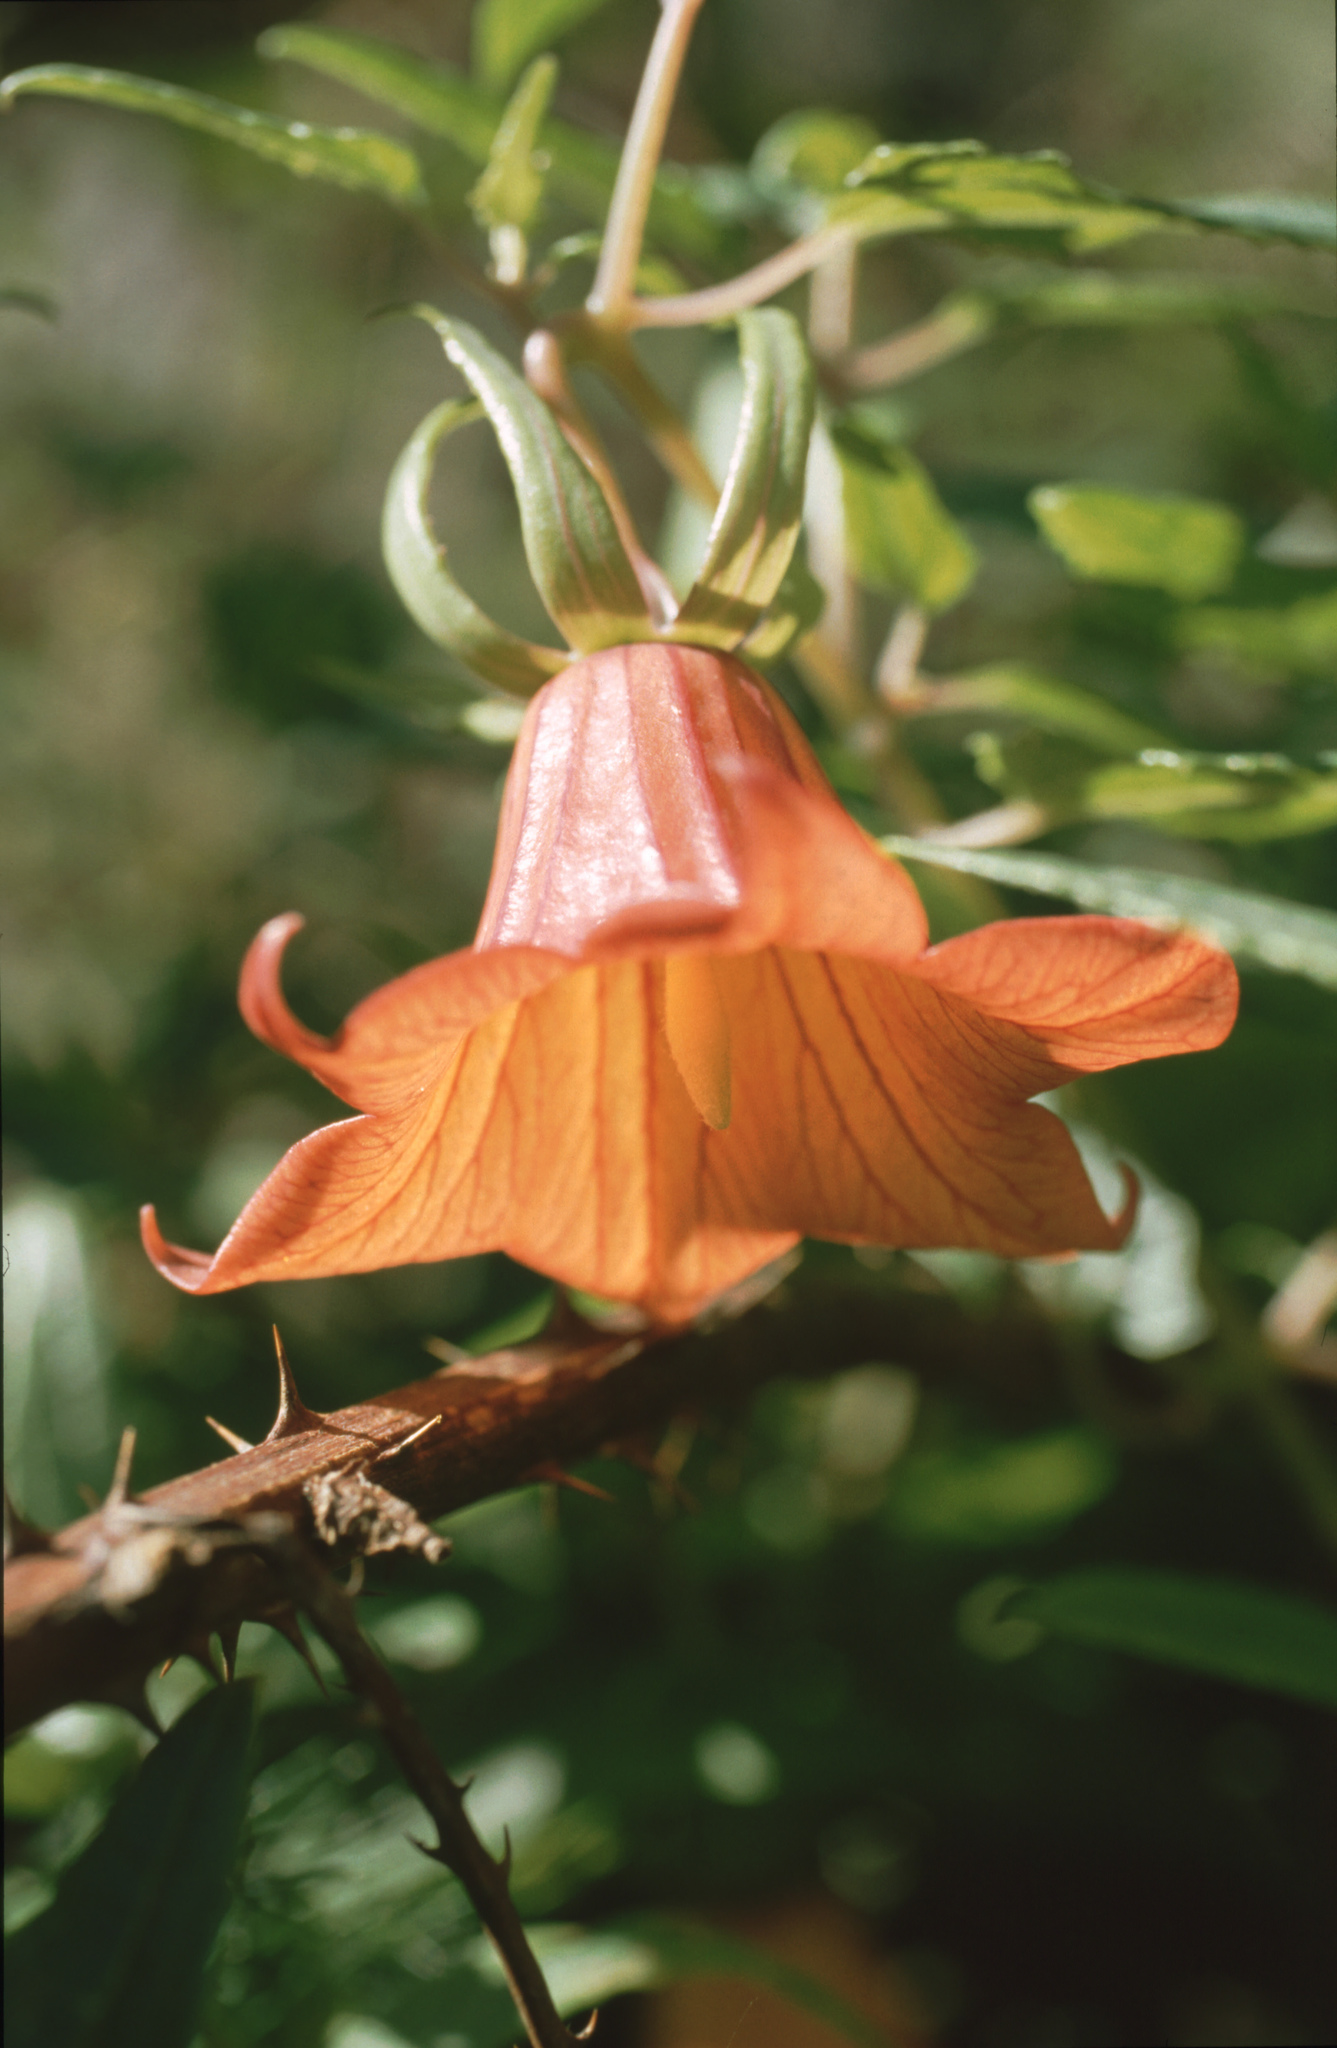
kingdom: Plantae
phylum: Tracheophyta
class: Magnoliopsida
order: Asterales
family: Campanulaceae
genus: Canarina
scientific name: Canarina canariensis
